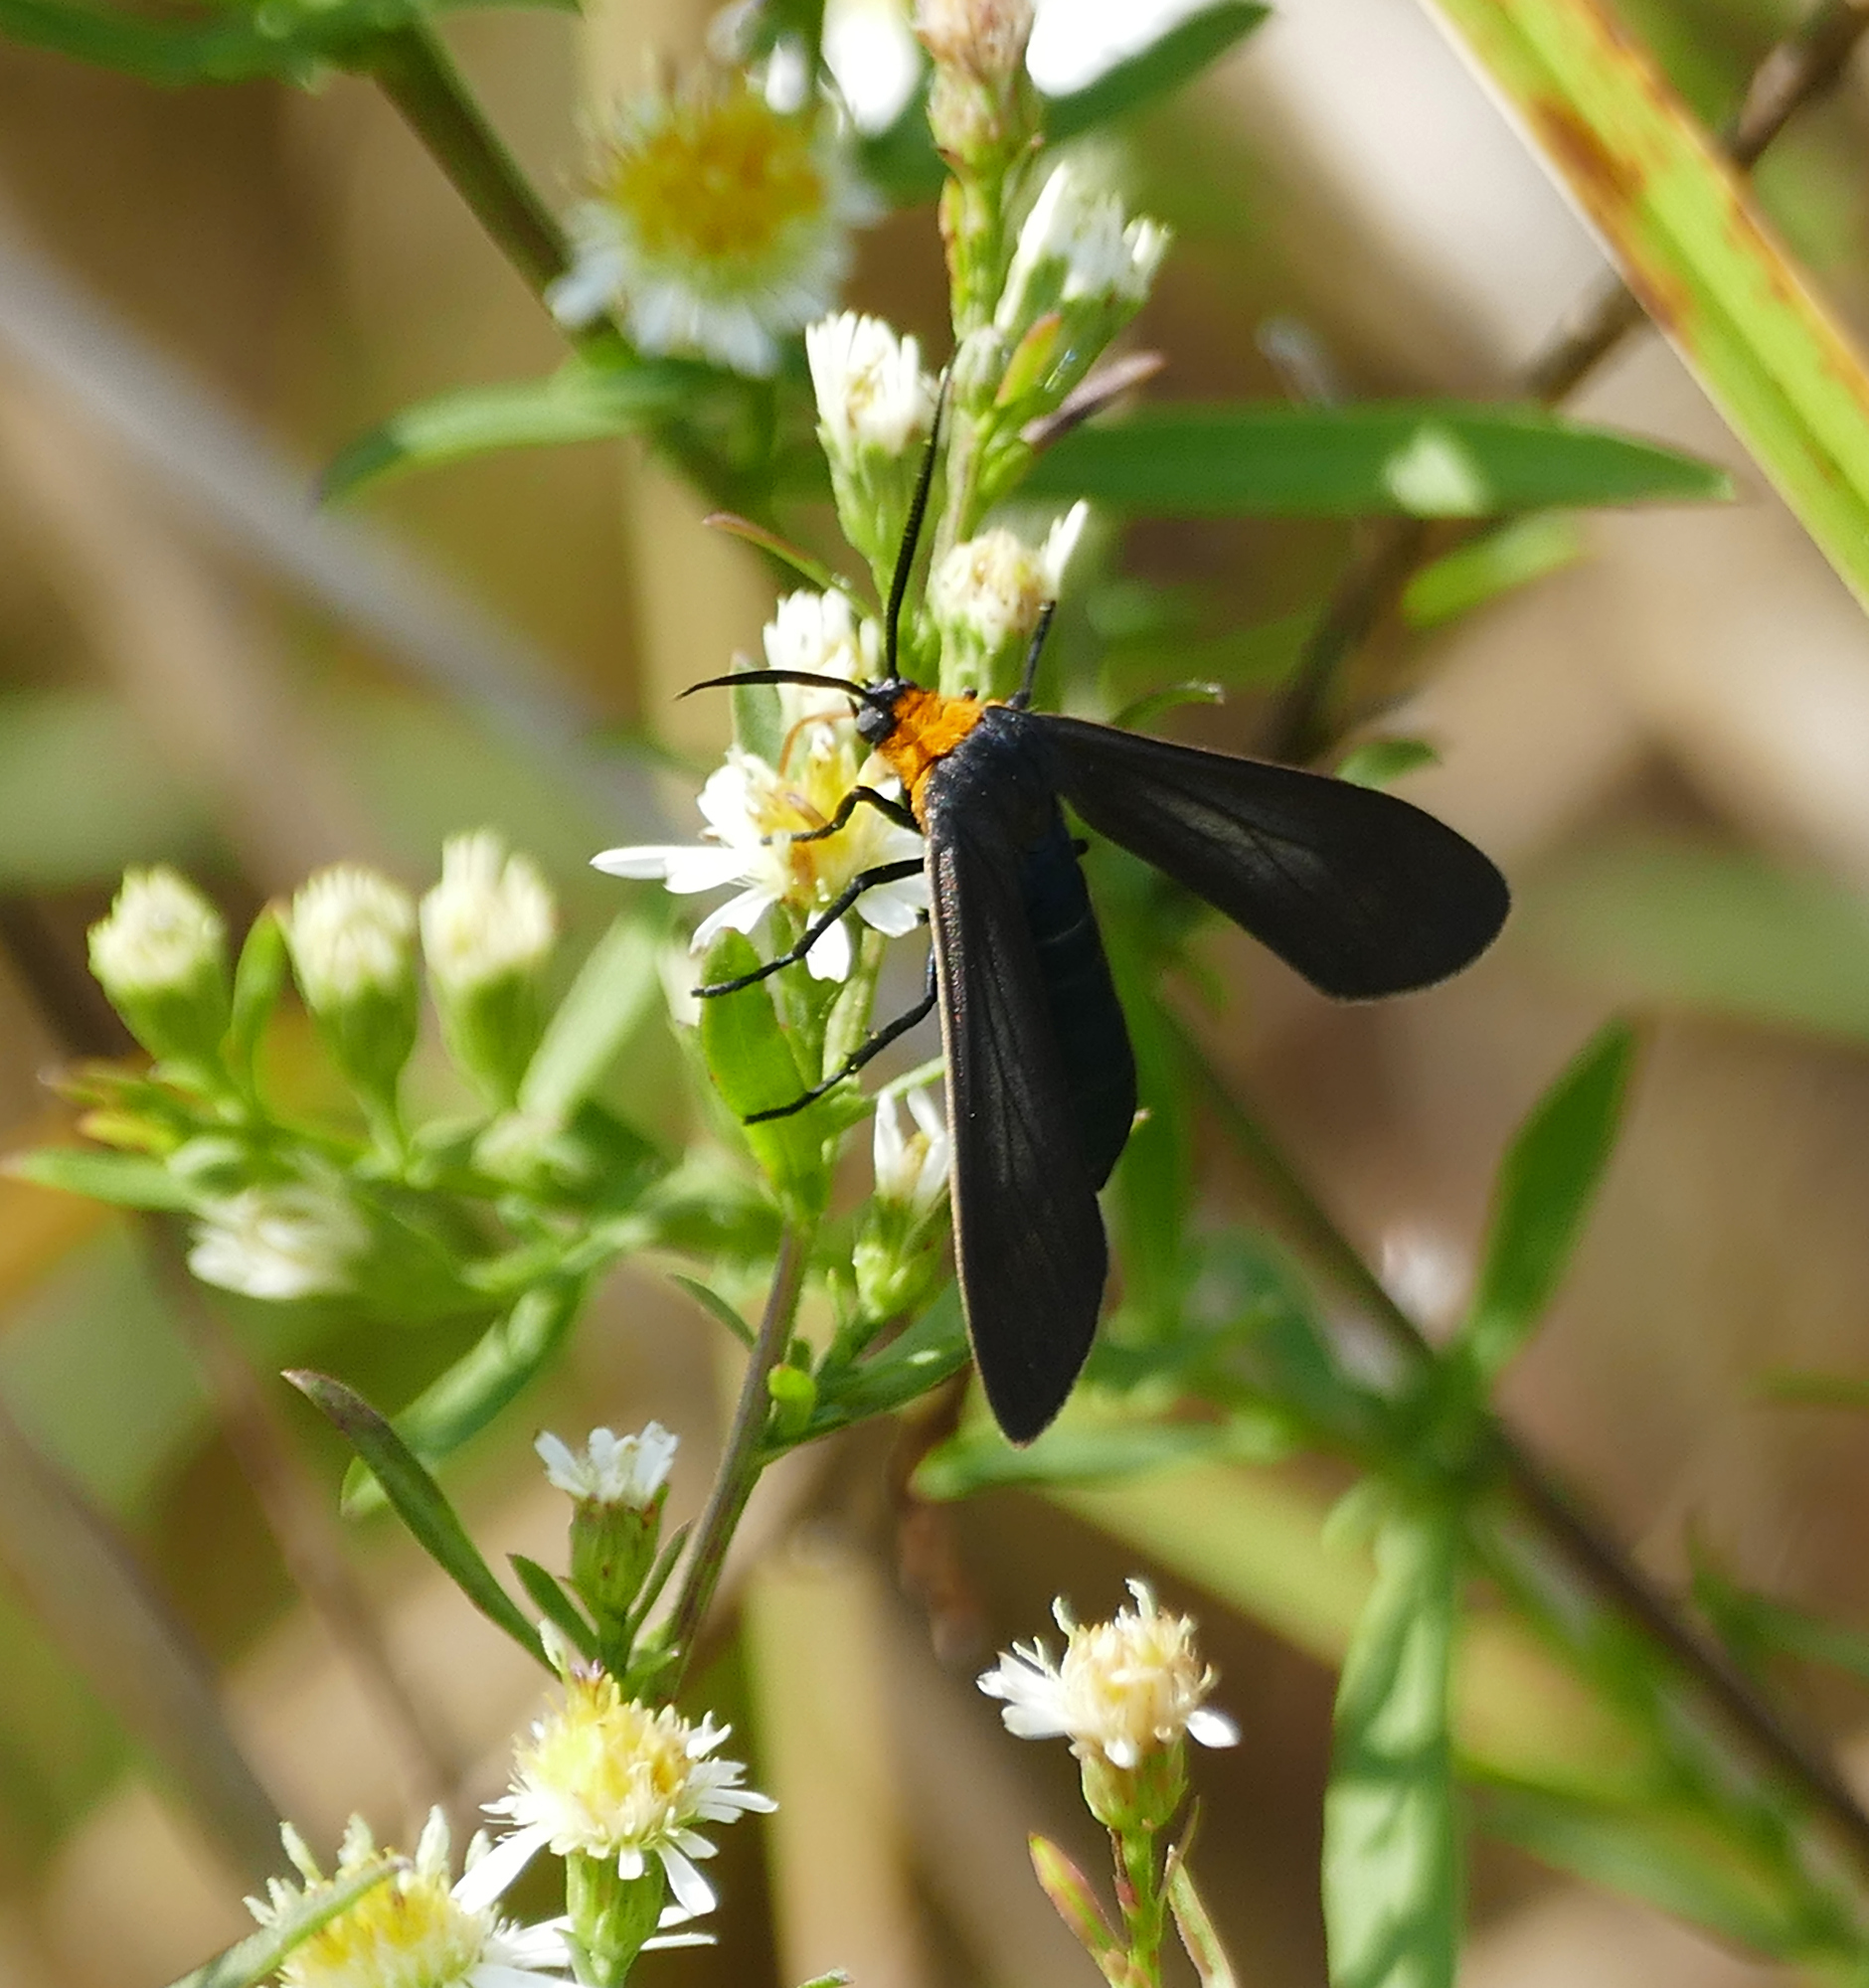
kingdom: Animalia
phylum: Arthropoda
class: Insecta
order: Lepidoptera
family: Erebidae
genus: Cisseps
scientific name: Cisseps fulvicollis
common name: Yellow-collared scape moth
